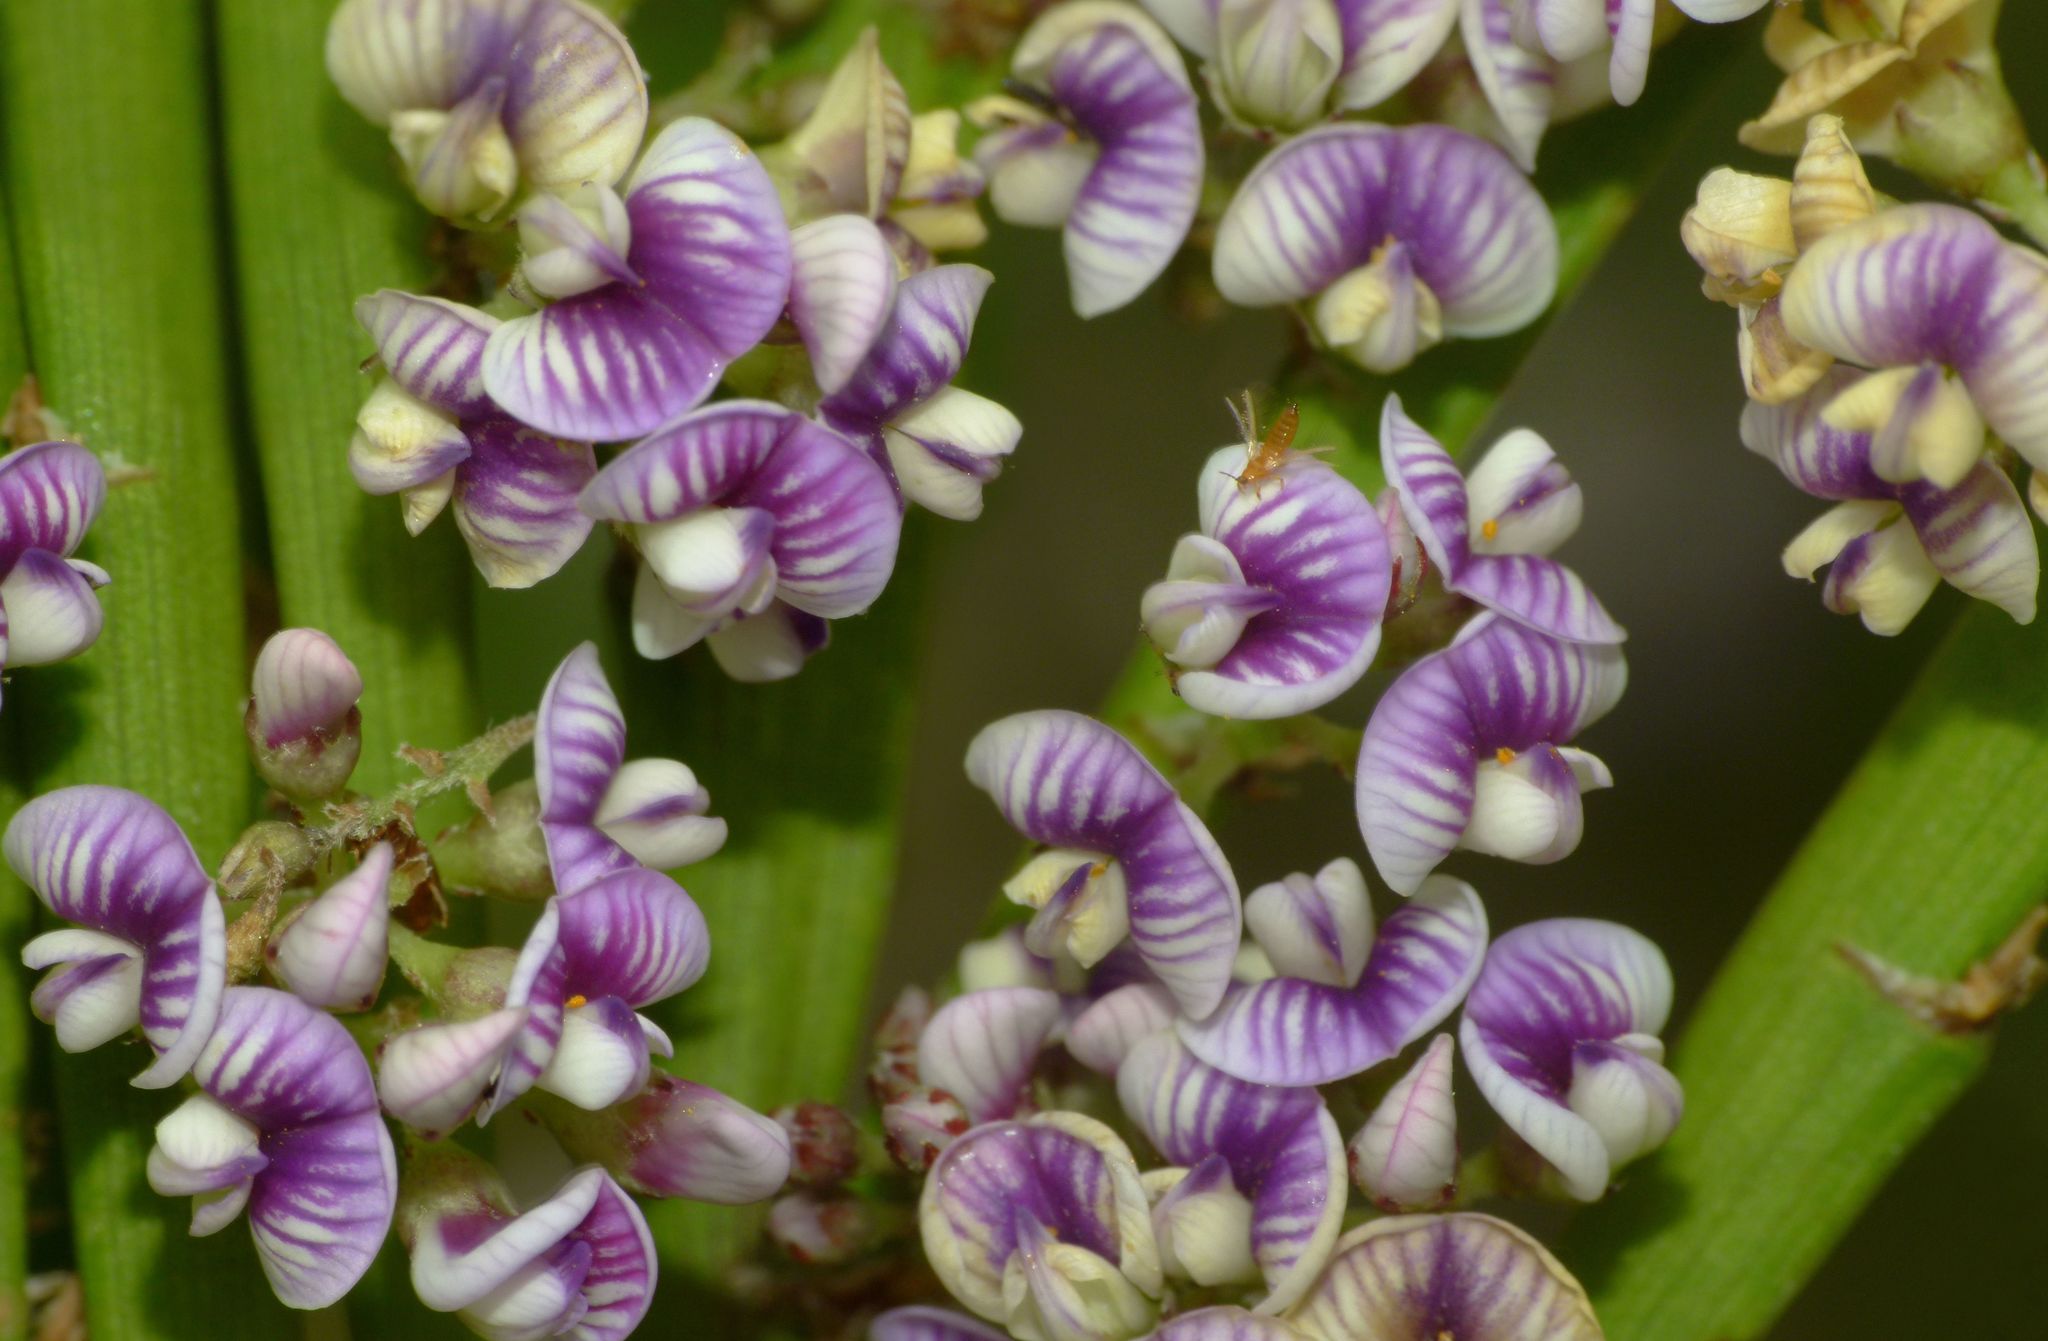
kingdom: Plantae
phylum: Tracheophyta
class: Magnoliopsida
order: Fabales
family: Fabaceae
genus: Carmichaelia
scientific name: Carmichaelia australis
